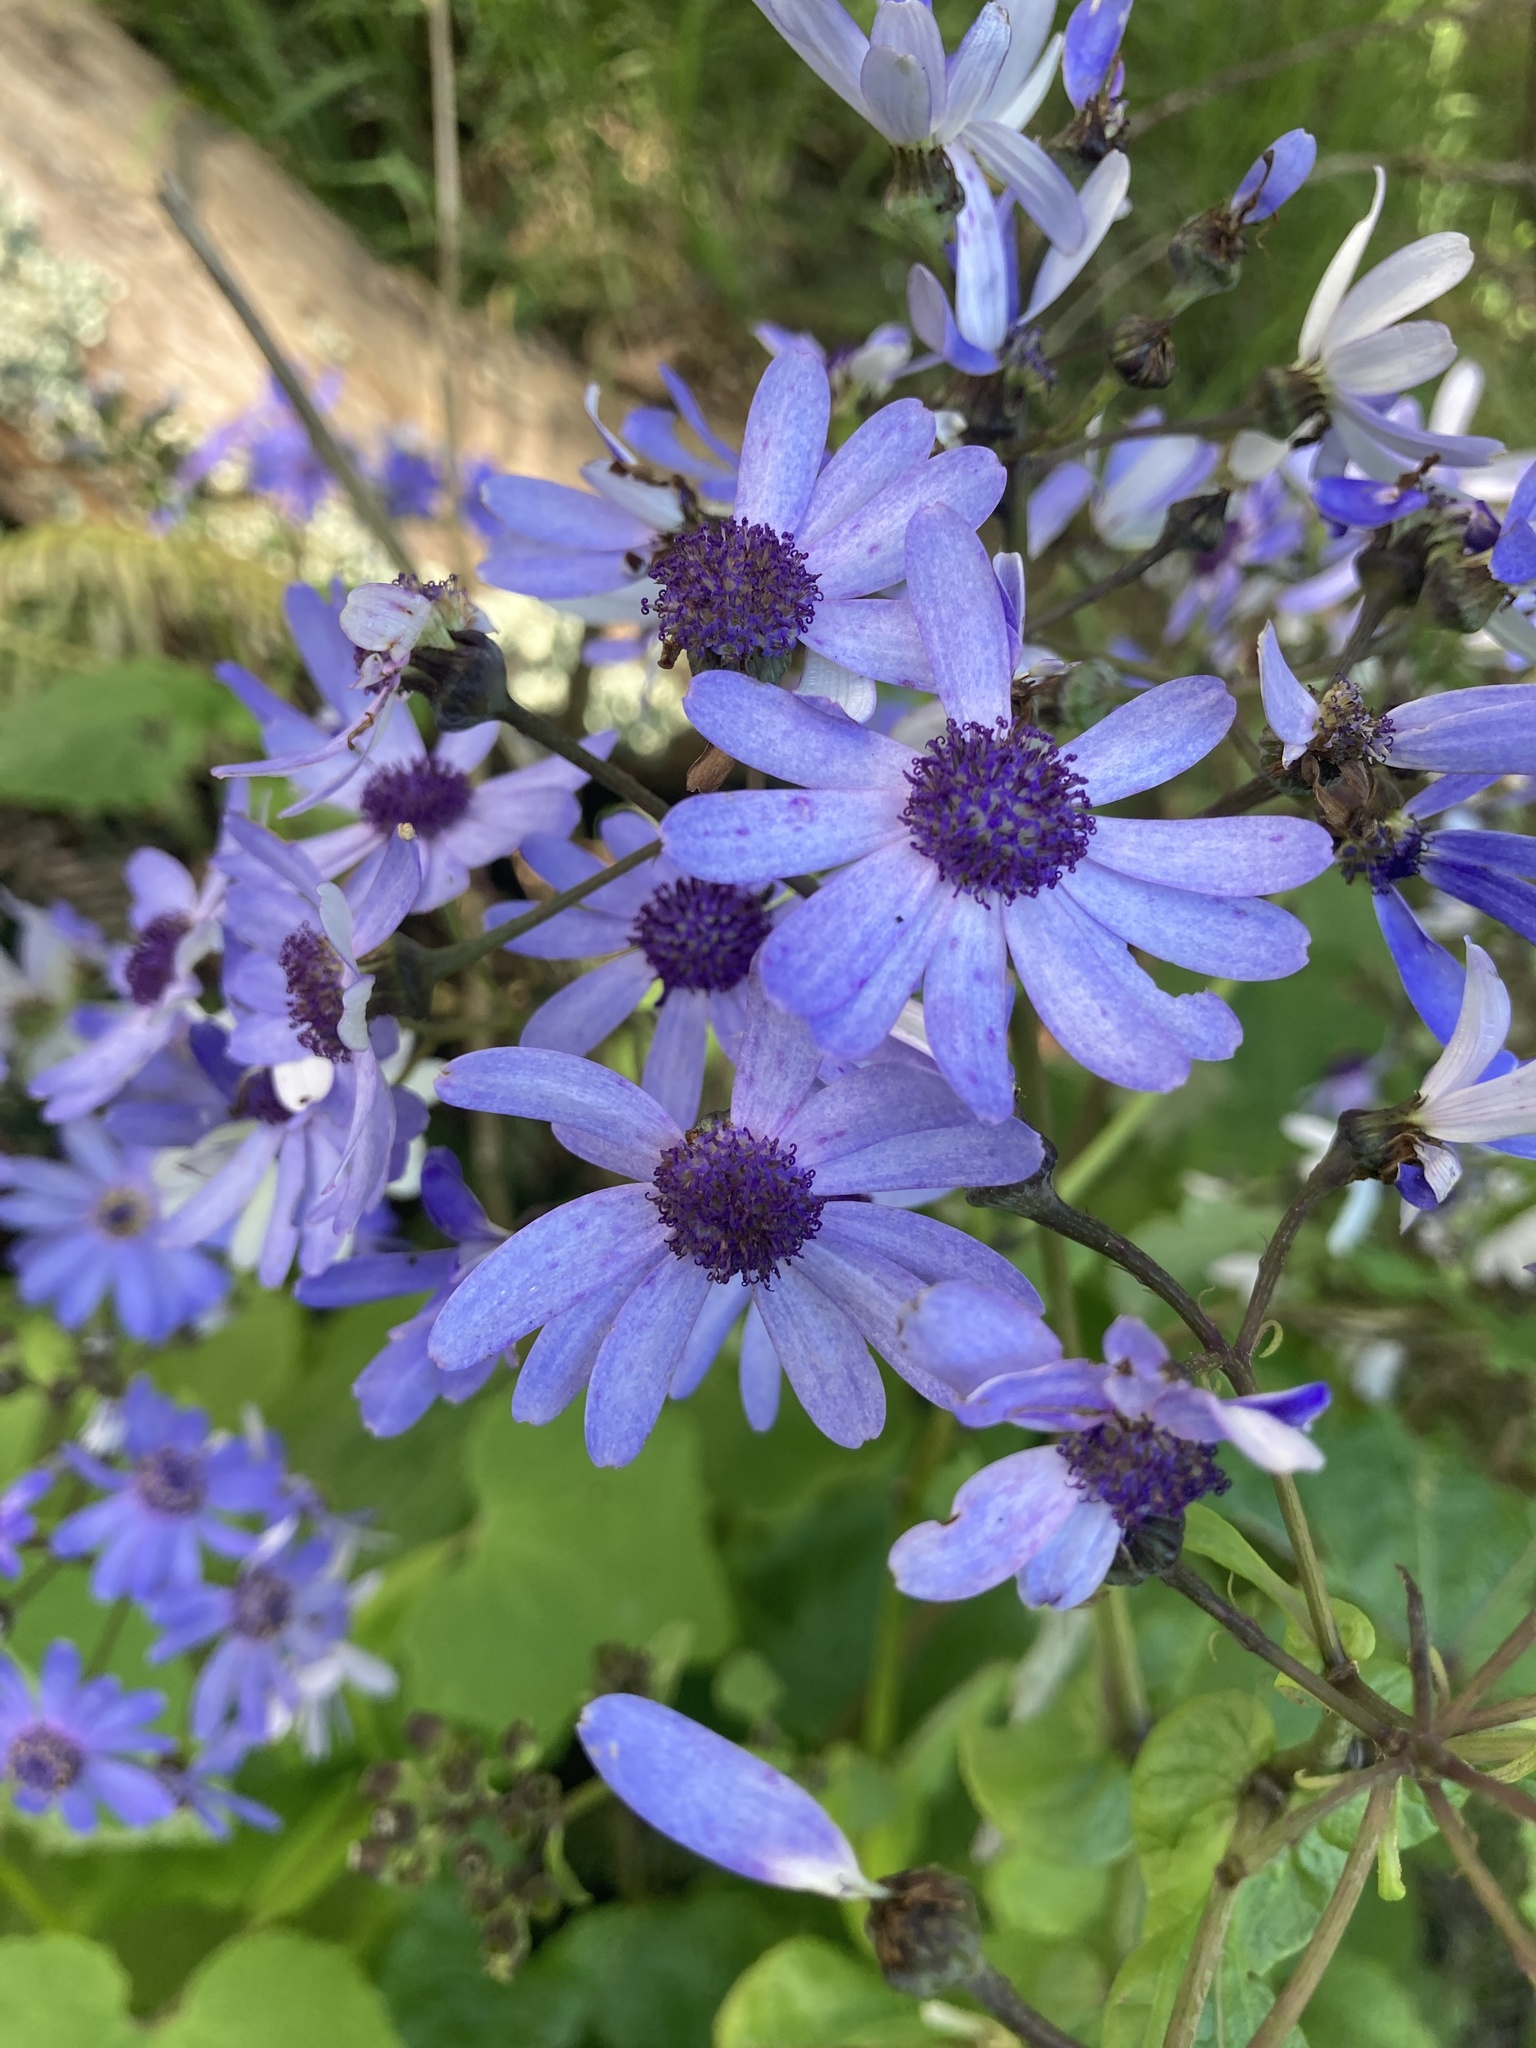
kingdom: Plantae
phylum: Tracheophyta
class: Magnoliopsida
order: Asterales
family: Asteraceae
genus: Pericallis
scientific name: Pericallis hybrida
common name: Cineraria
